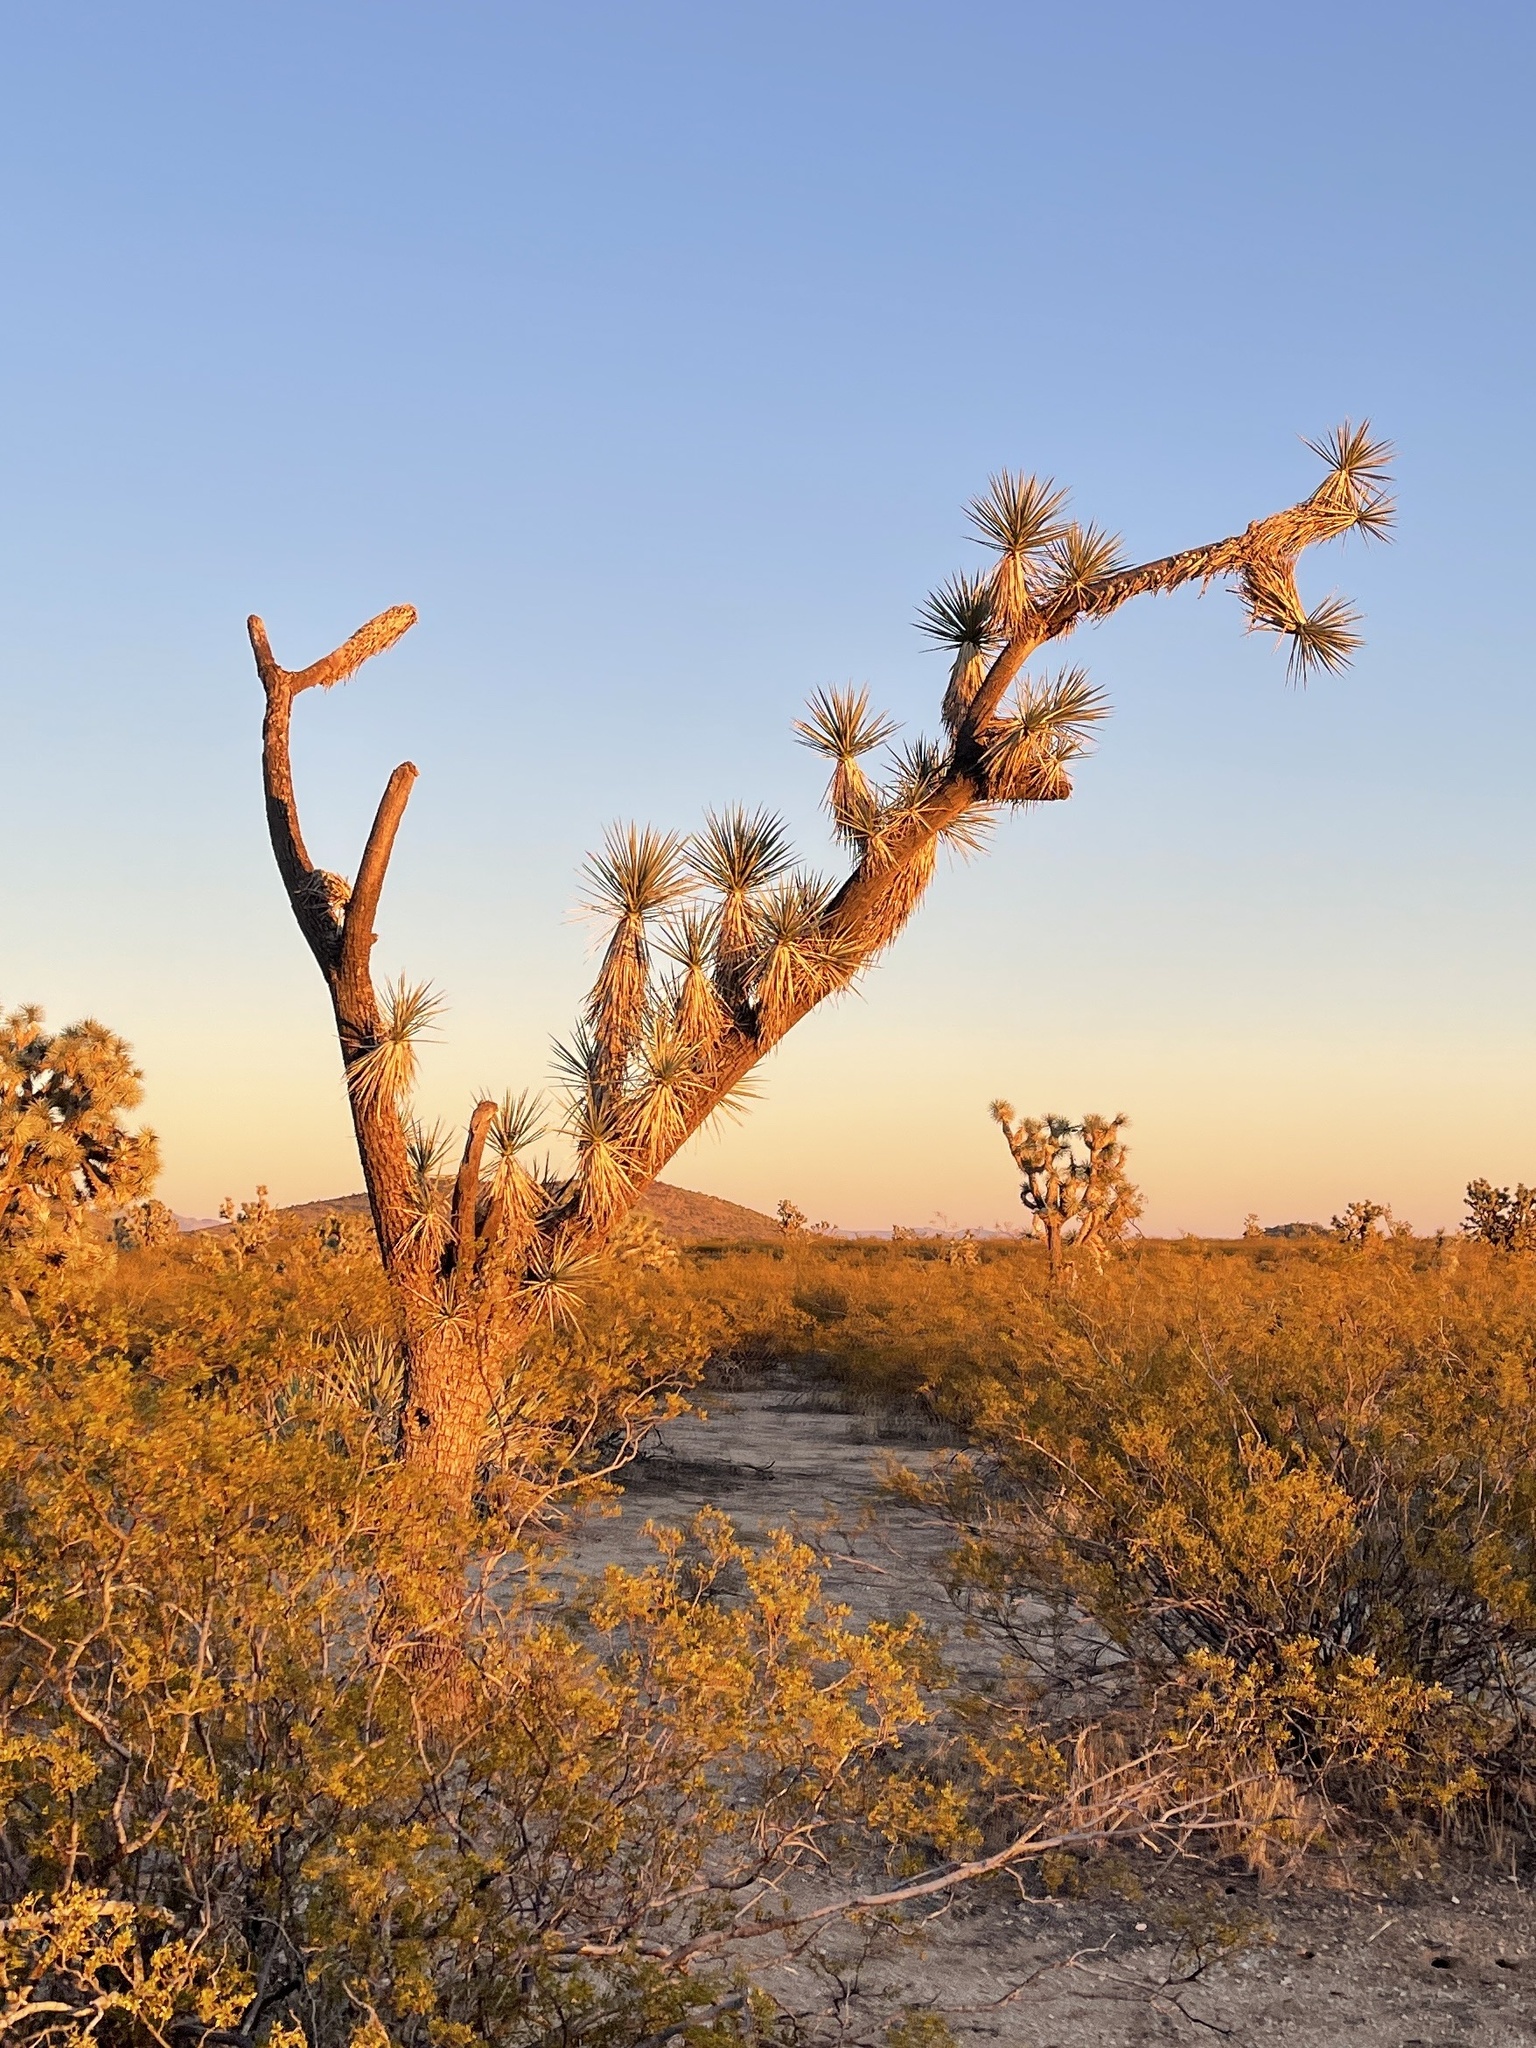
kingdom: Plantae
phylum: Tracheophyta
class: Liliopsida
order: Asparagales
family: Asparagaceae
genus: Yucca
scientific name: Yucca brevifolia
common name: Joshua tree
